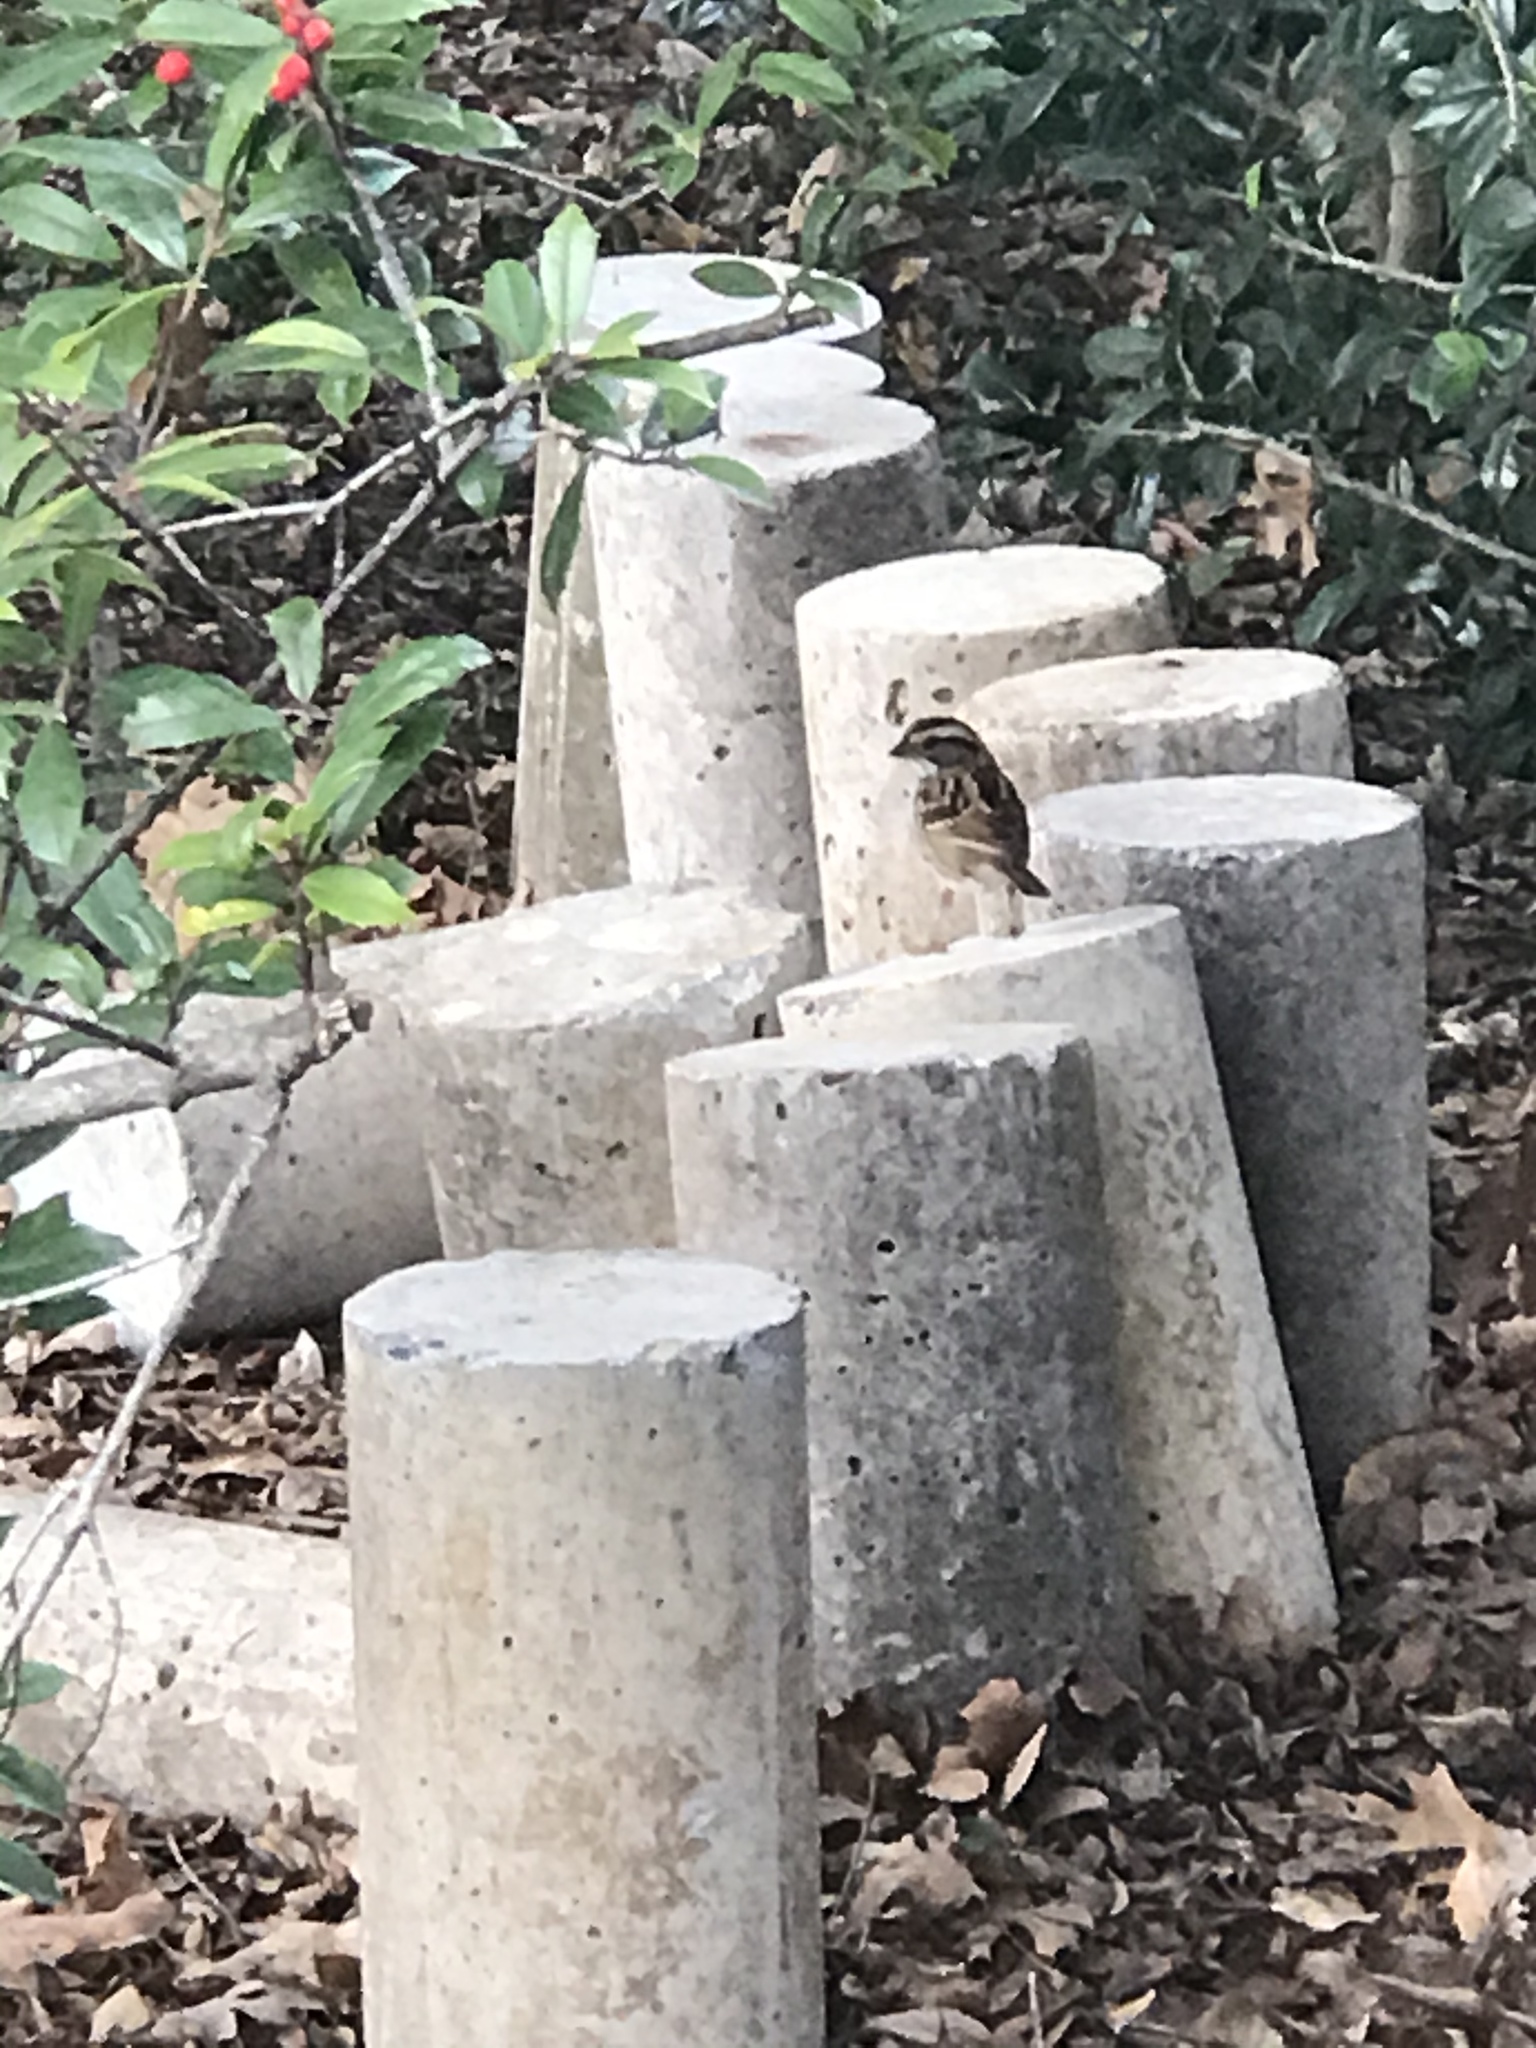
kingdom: Animalia
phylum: Chordata
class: Aves
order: Passeriformes
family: Passerellidae
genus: Zonotrichia
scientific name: Zonotrichia albicollis
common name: White-throated sparrow
